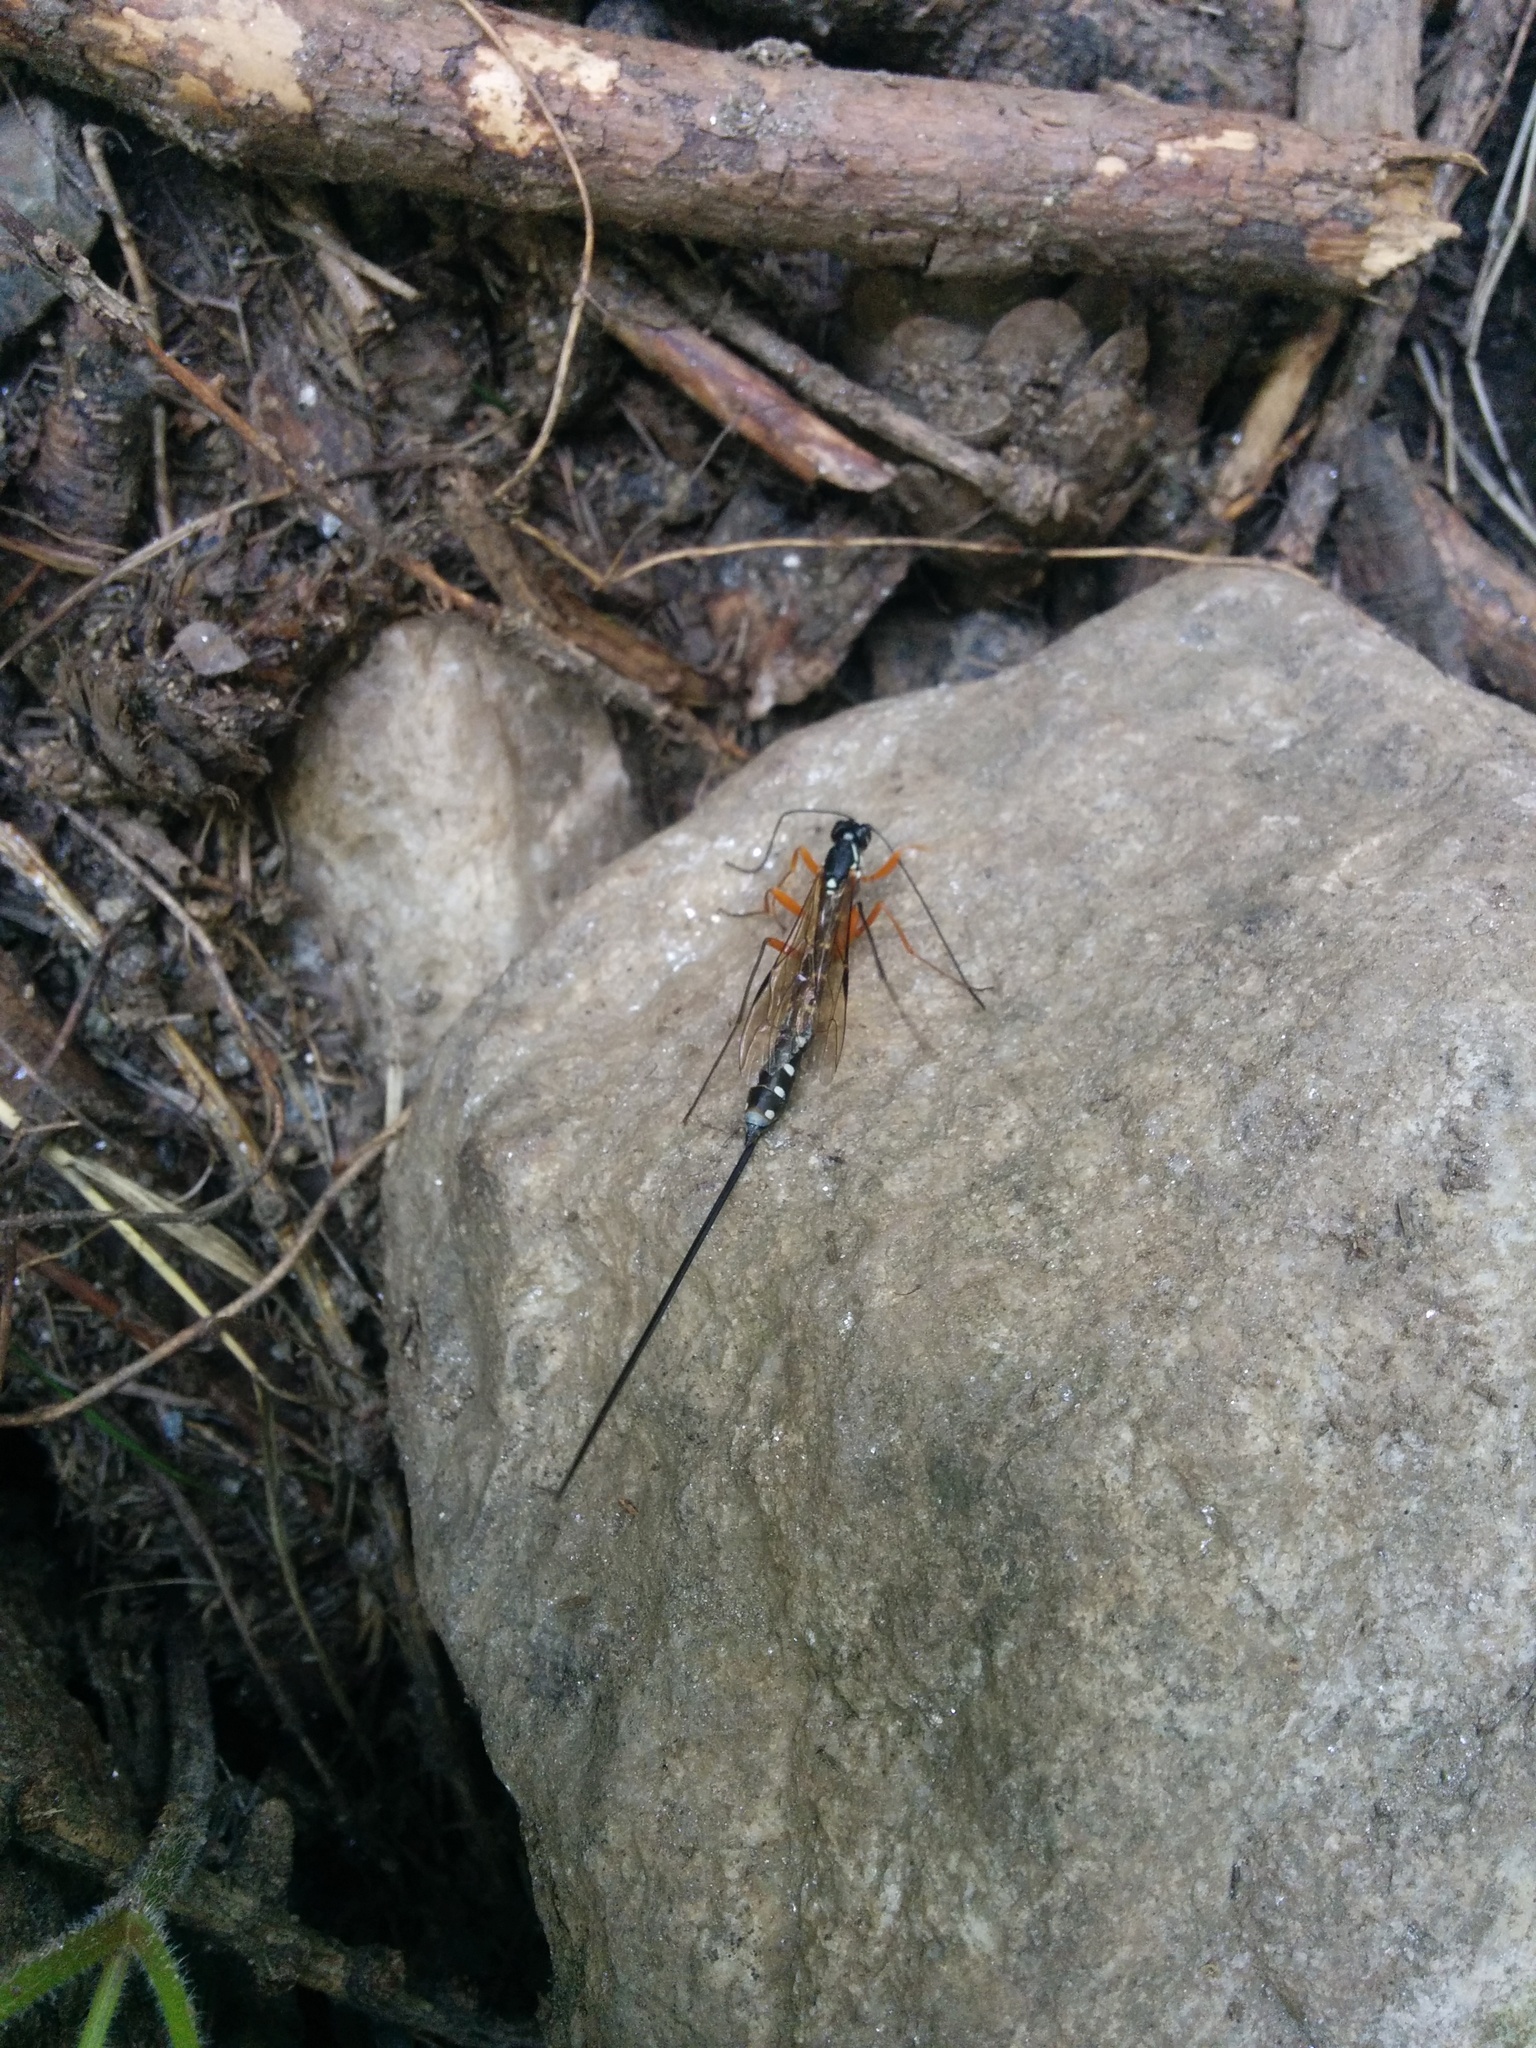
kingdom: Animalia
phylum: Arthropoda
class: Insecta
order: Hymenoptera
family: Ichneumonidae
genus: Rhyssa
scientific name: Rhyssa persuasoria
